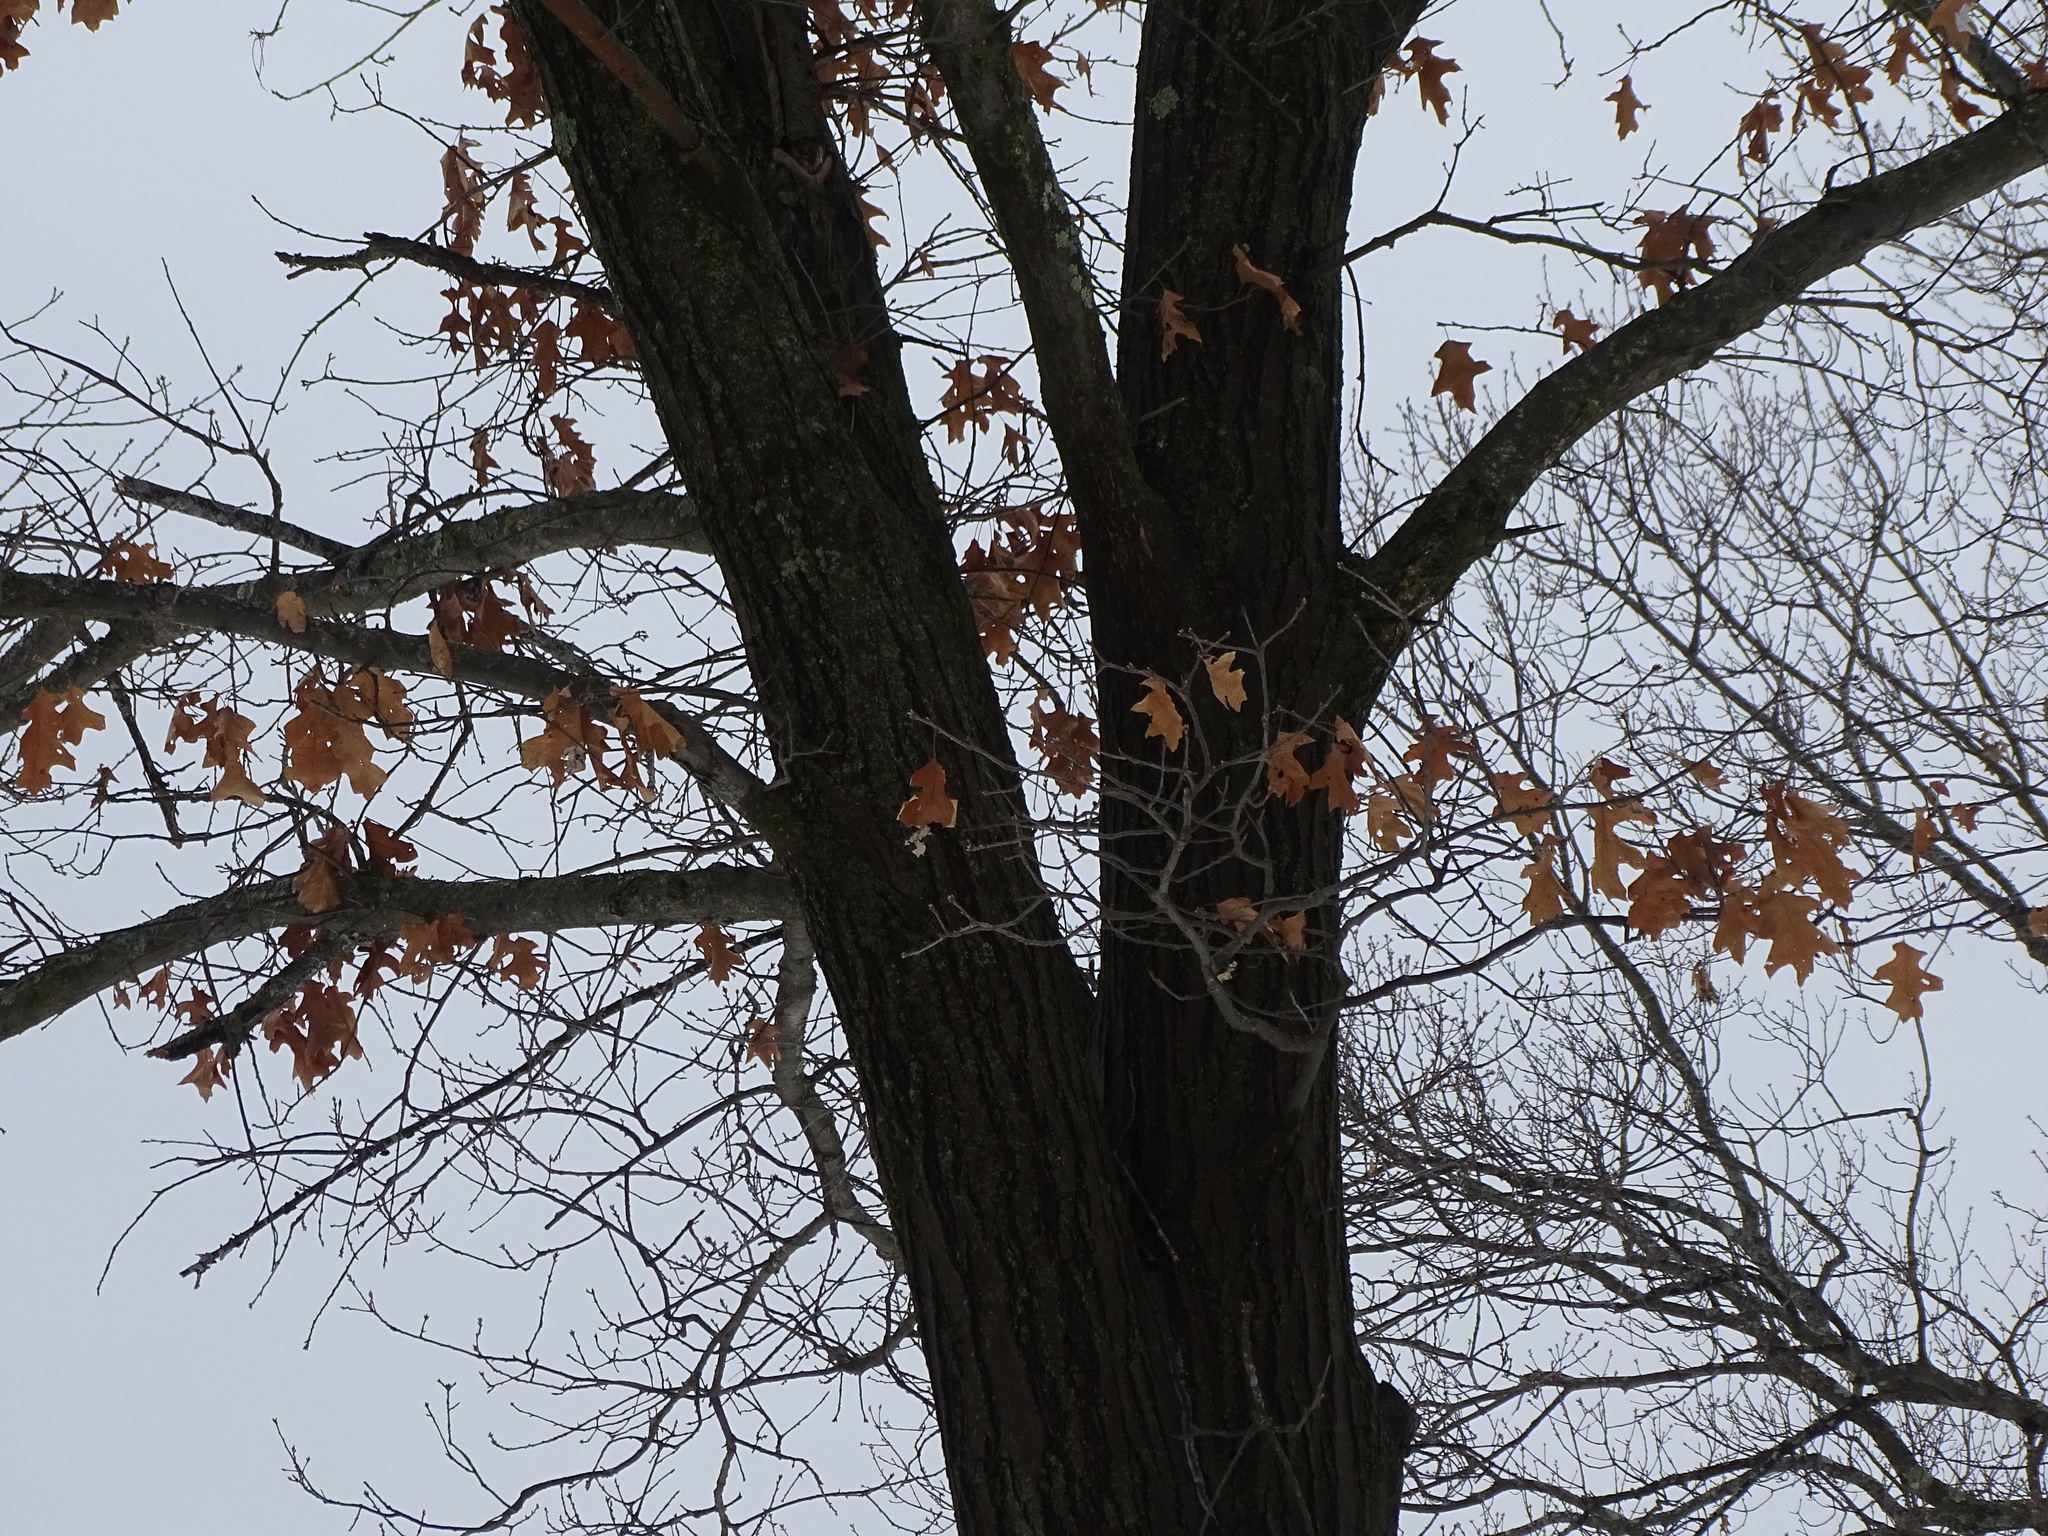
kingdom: Plantae
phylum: Tracheophyta
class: Magnoliopsida
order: Fagales
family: Fagaceae
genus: Quercus
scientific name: Quercus rubra
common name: Red oak
